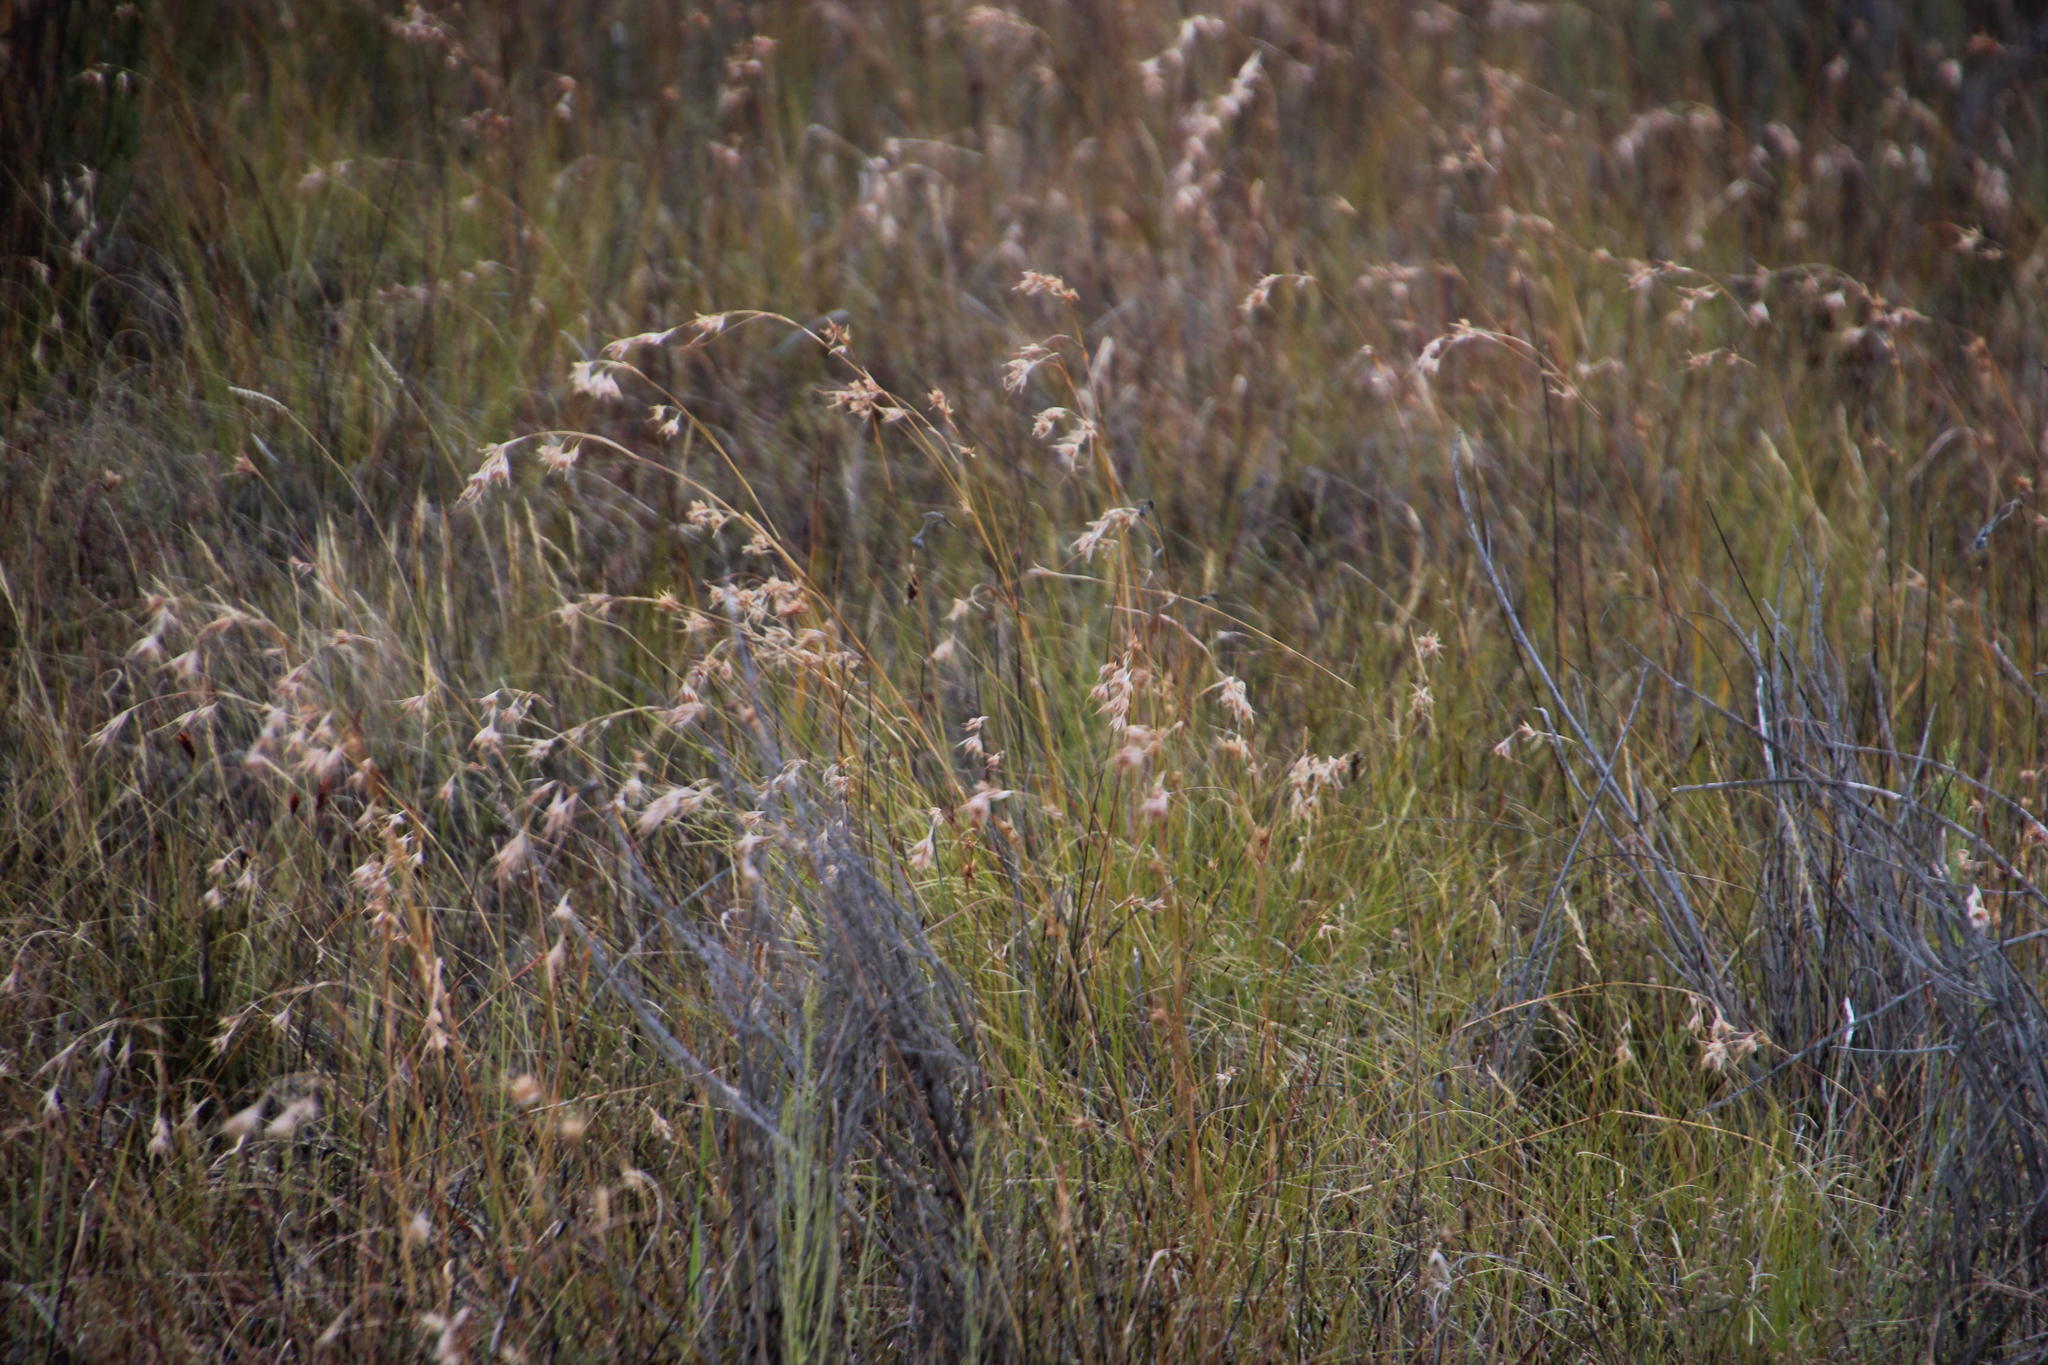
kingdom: Plantae
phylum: Tracheophyta
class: Liliopsida
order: Poales
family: Poaceae
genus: Themeda
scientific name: Themeda triandra
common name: Kangaroo grass
